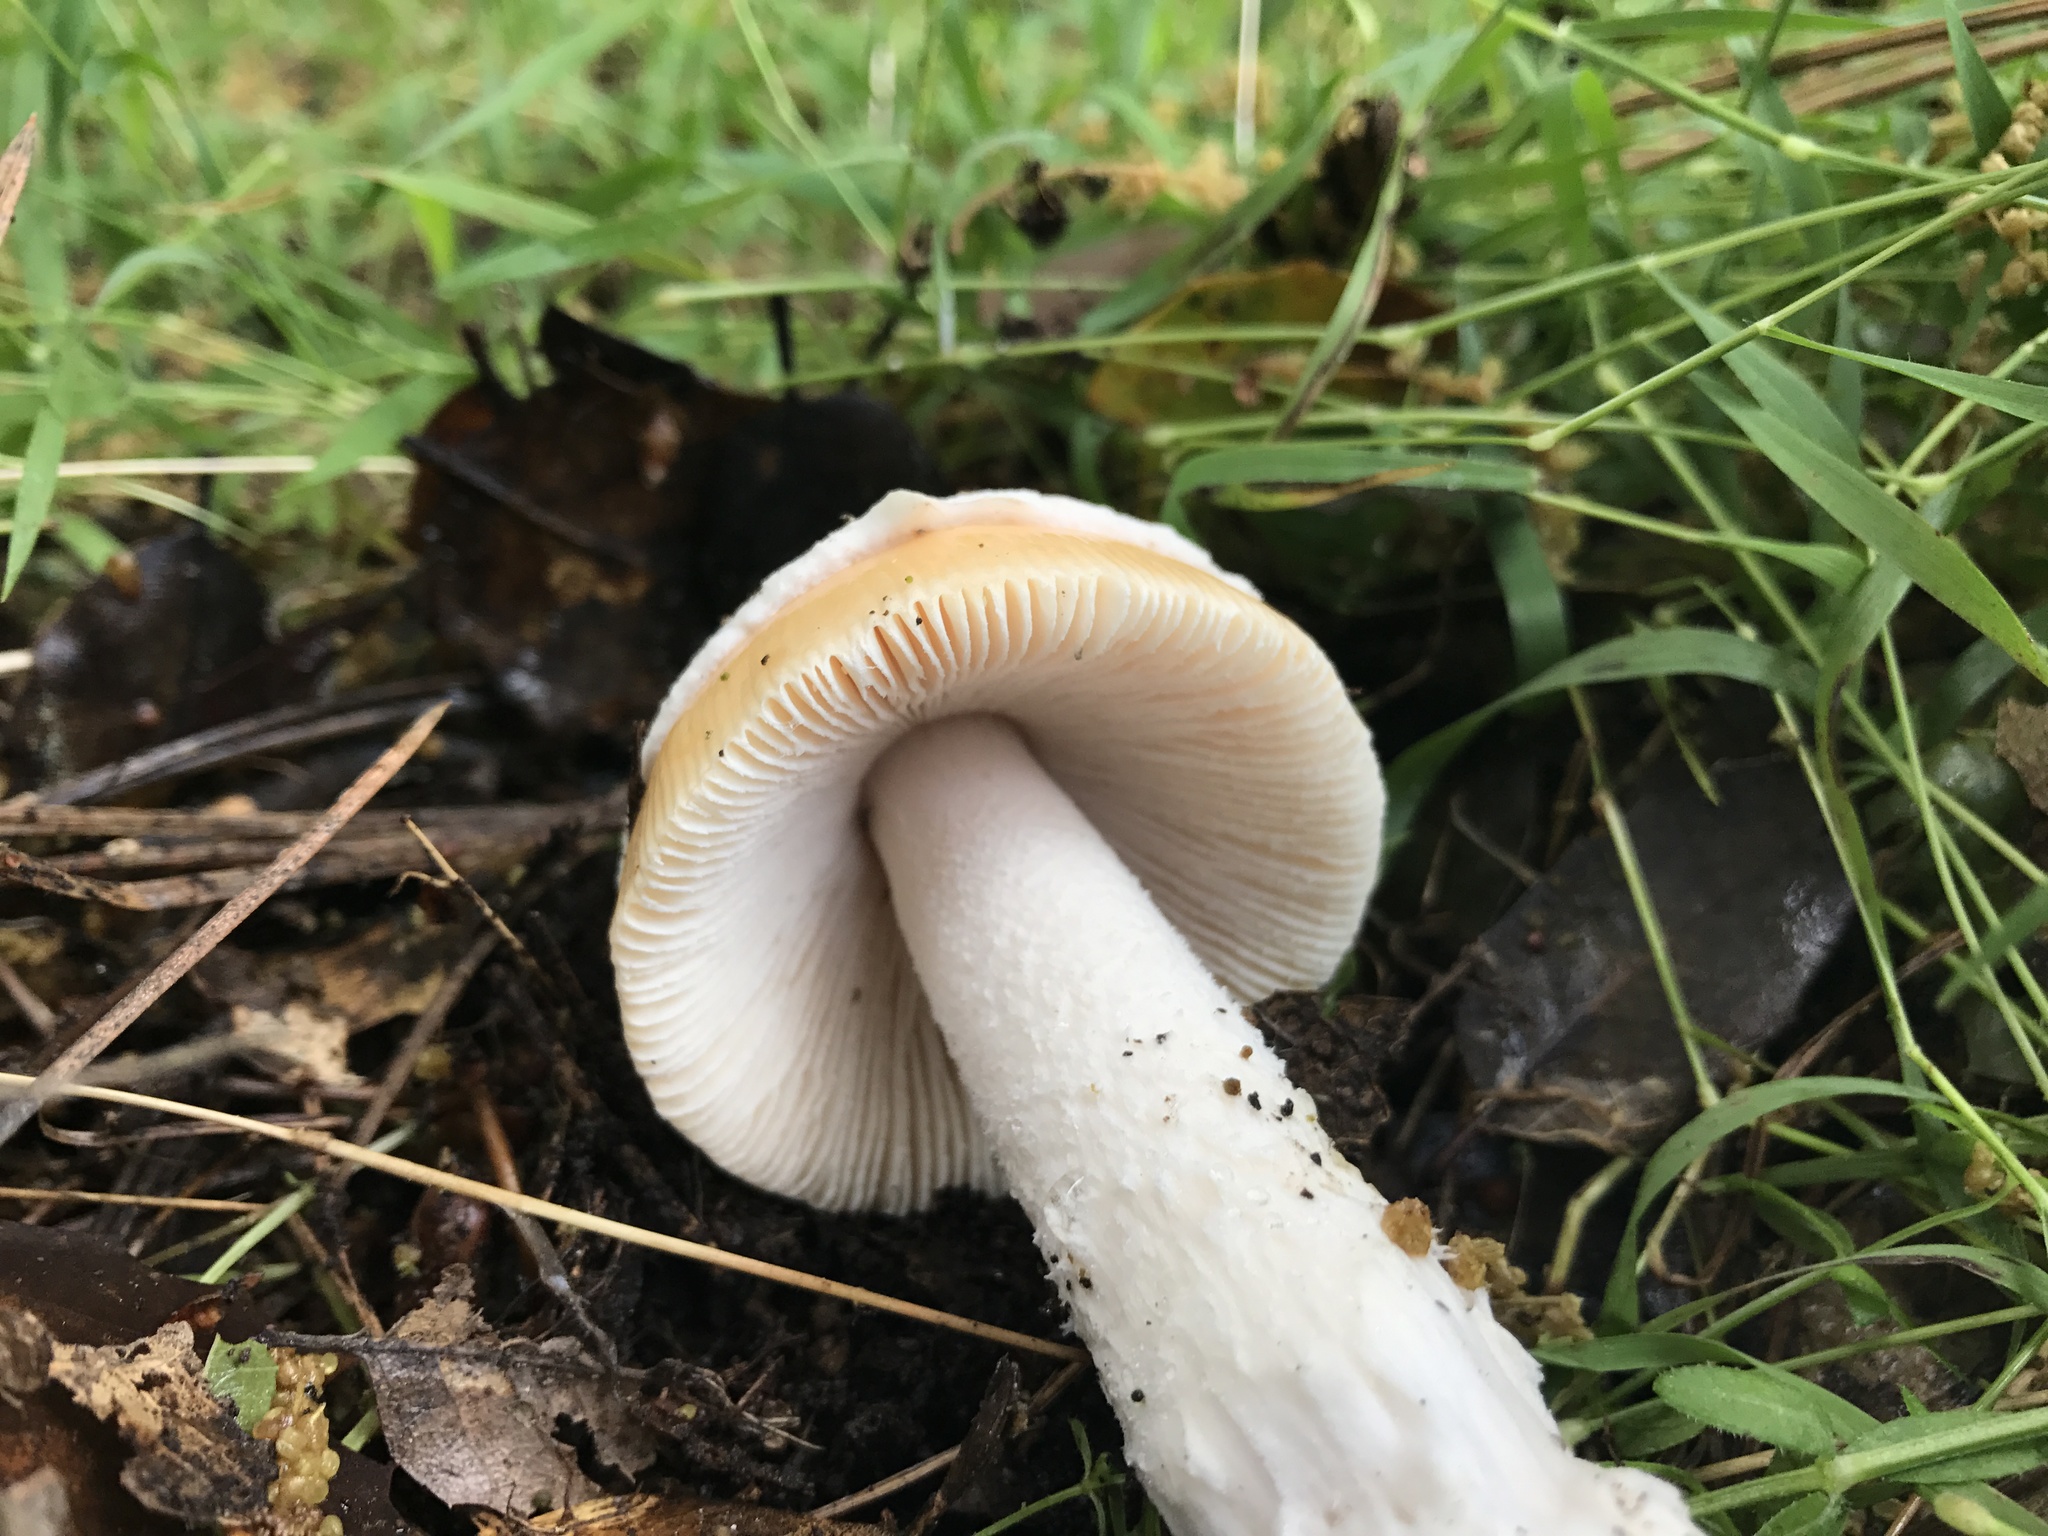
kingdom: Fungi
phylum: Basidiomycota
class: Agaricomycetes
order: Agaricales
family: Amanitaceae
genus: Amanita
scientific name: Amanita velosa
